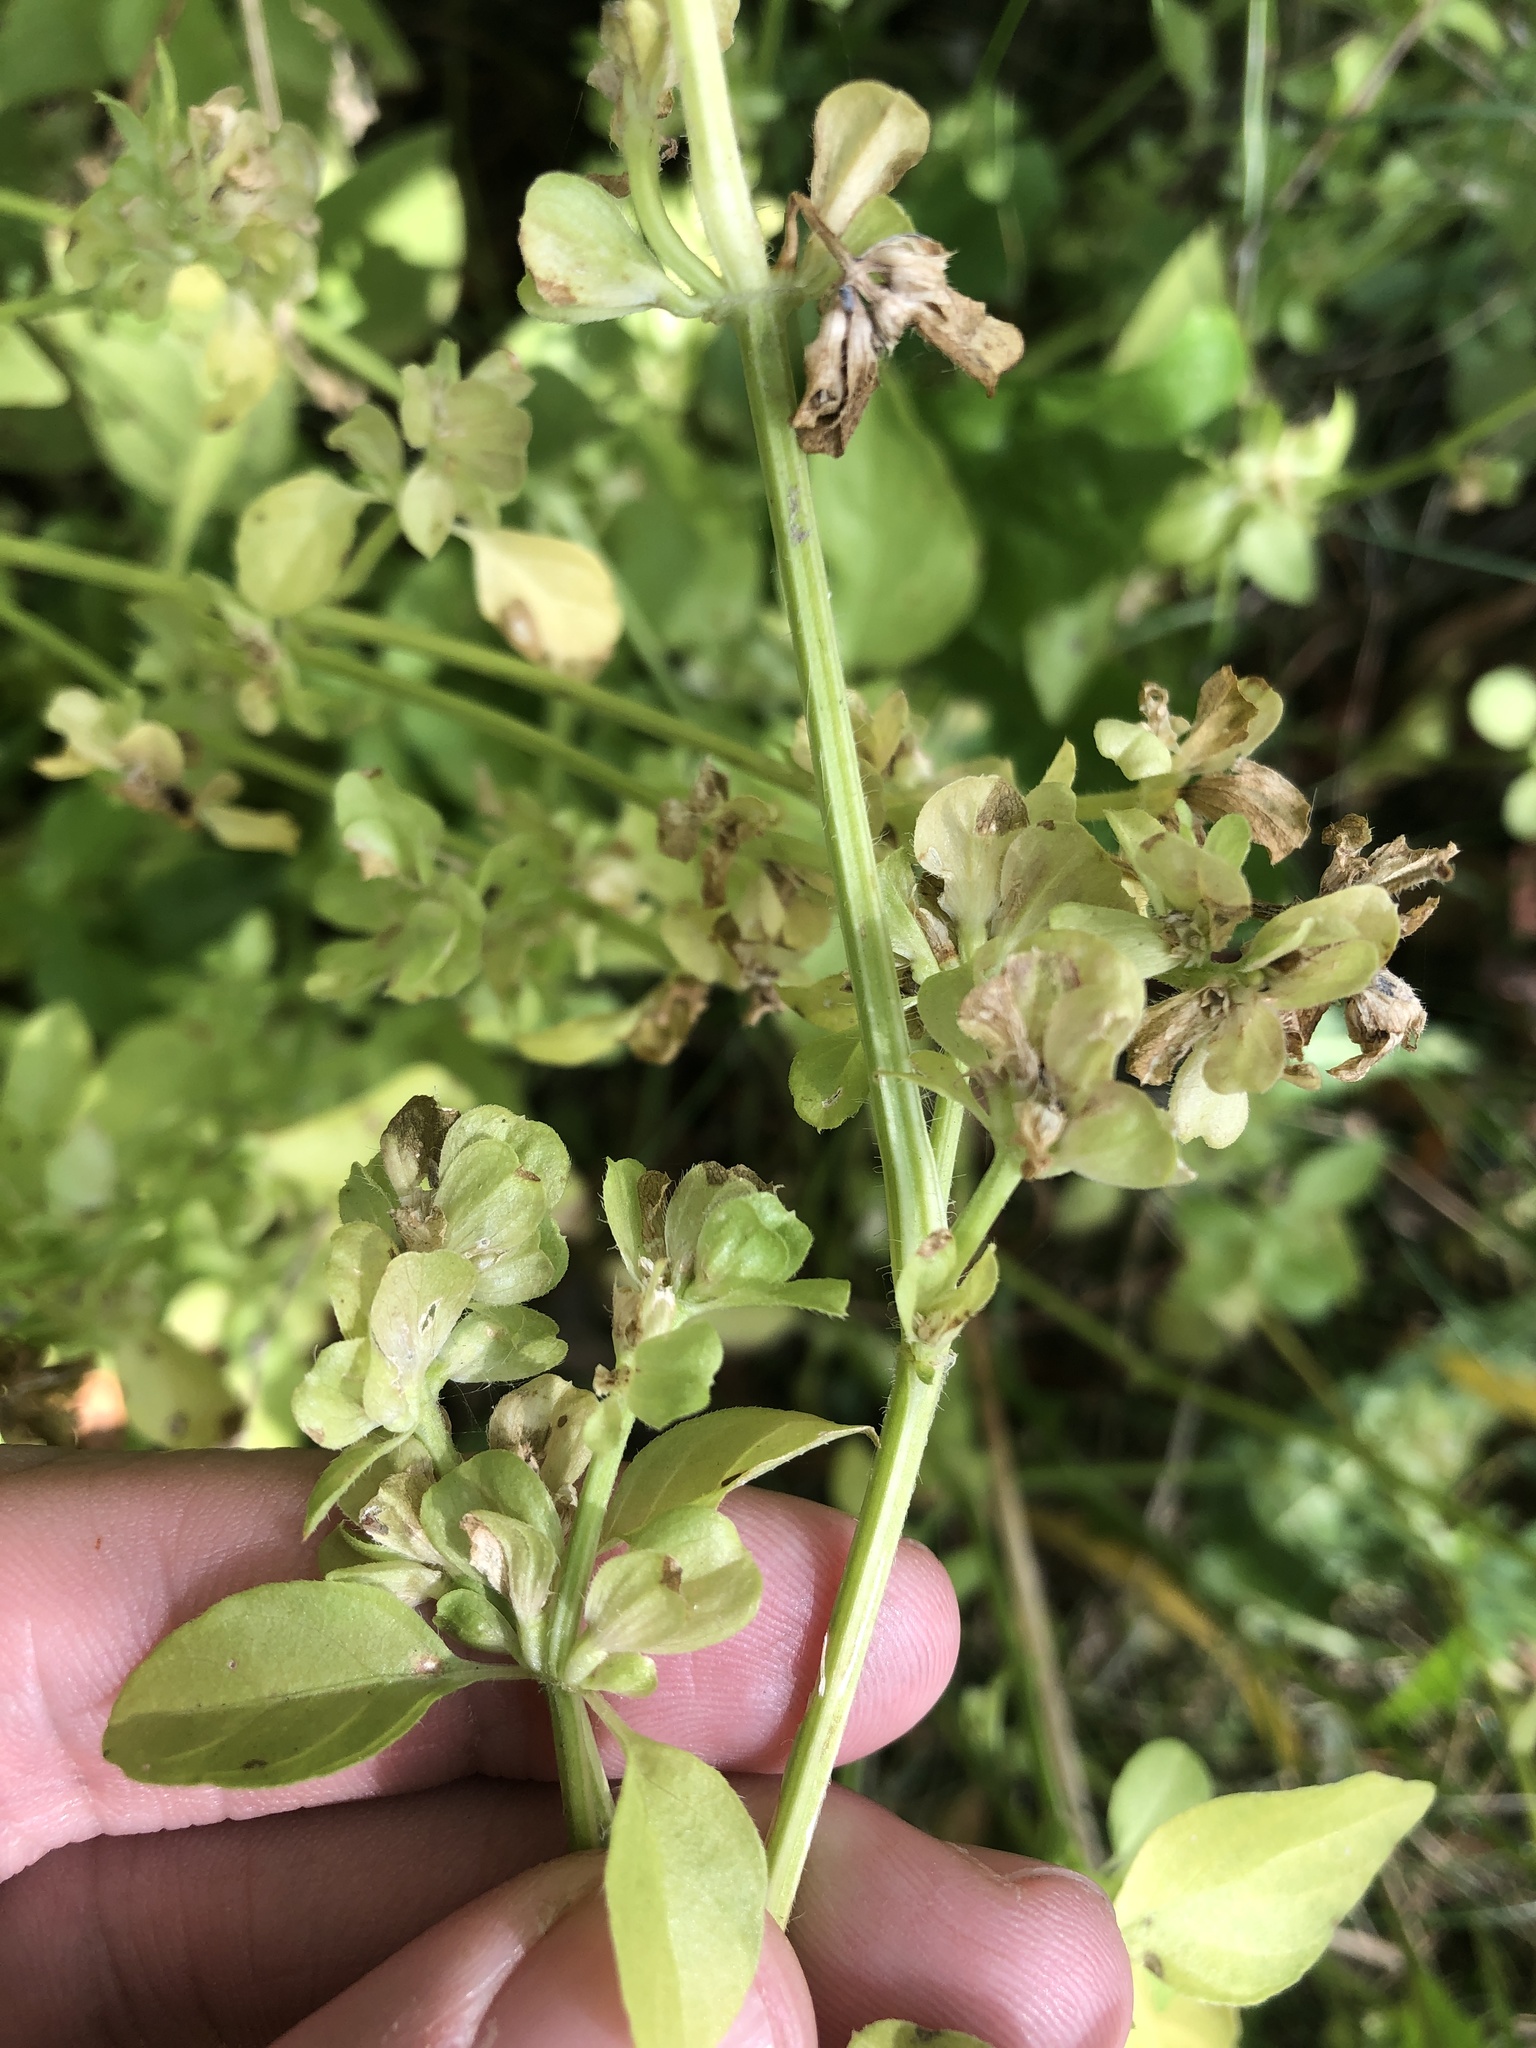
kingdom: Plantae
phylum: Tracheophyta
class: Magnoliopsida
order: Lamiales
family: Acanthaceae
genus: Dicliptera
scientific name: Dicliptera brachiata
